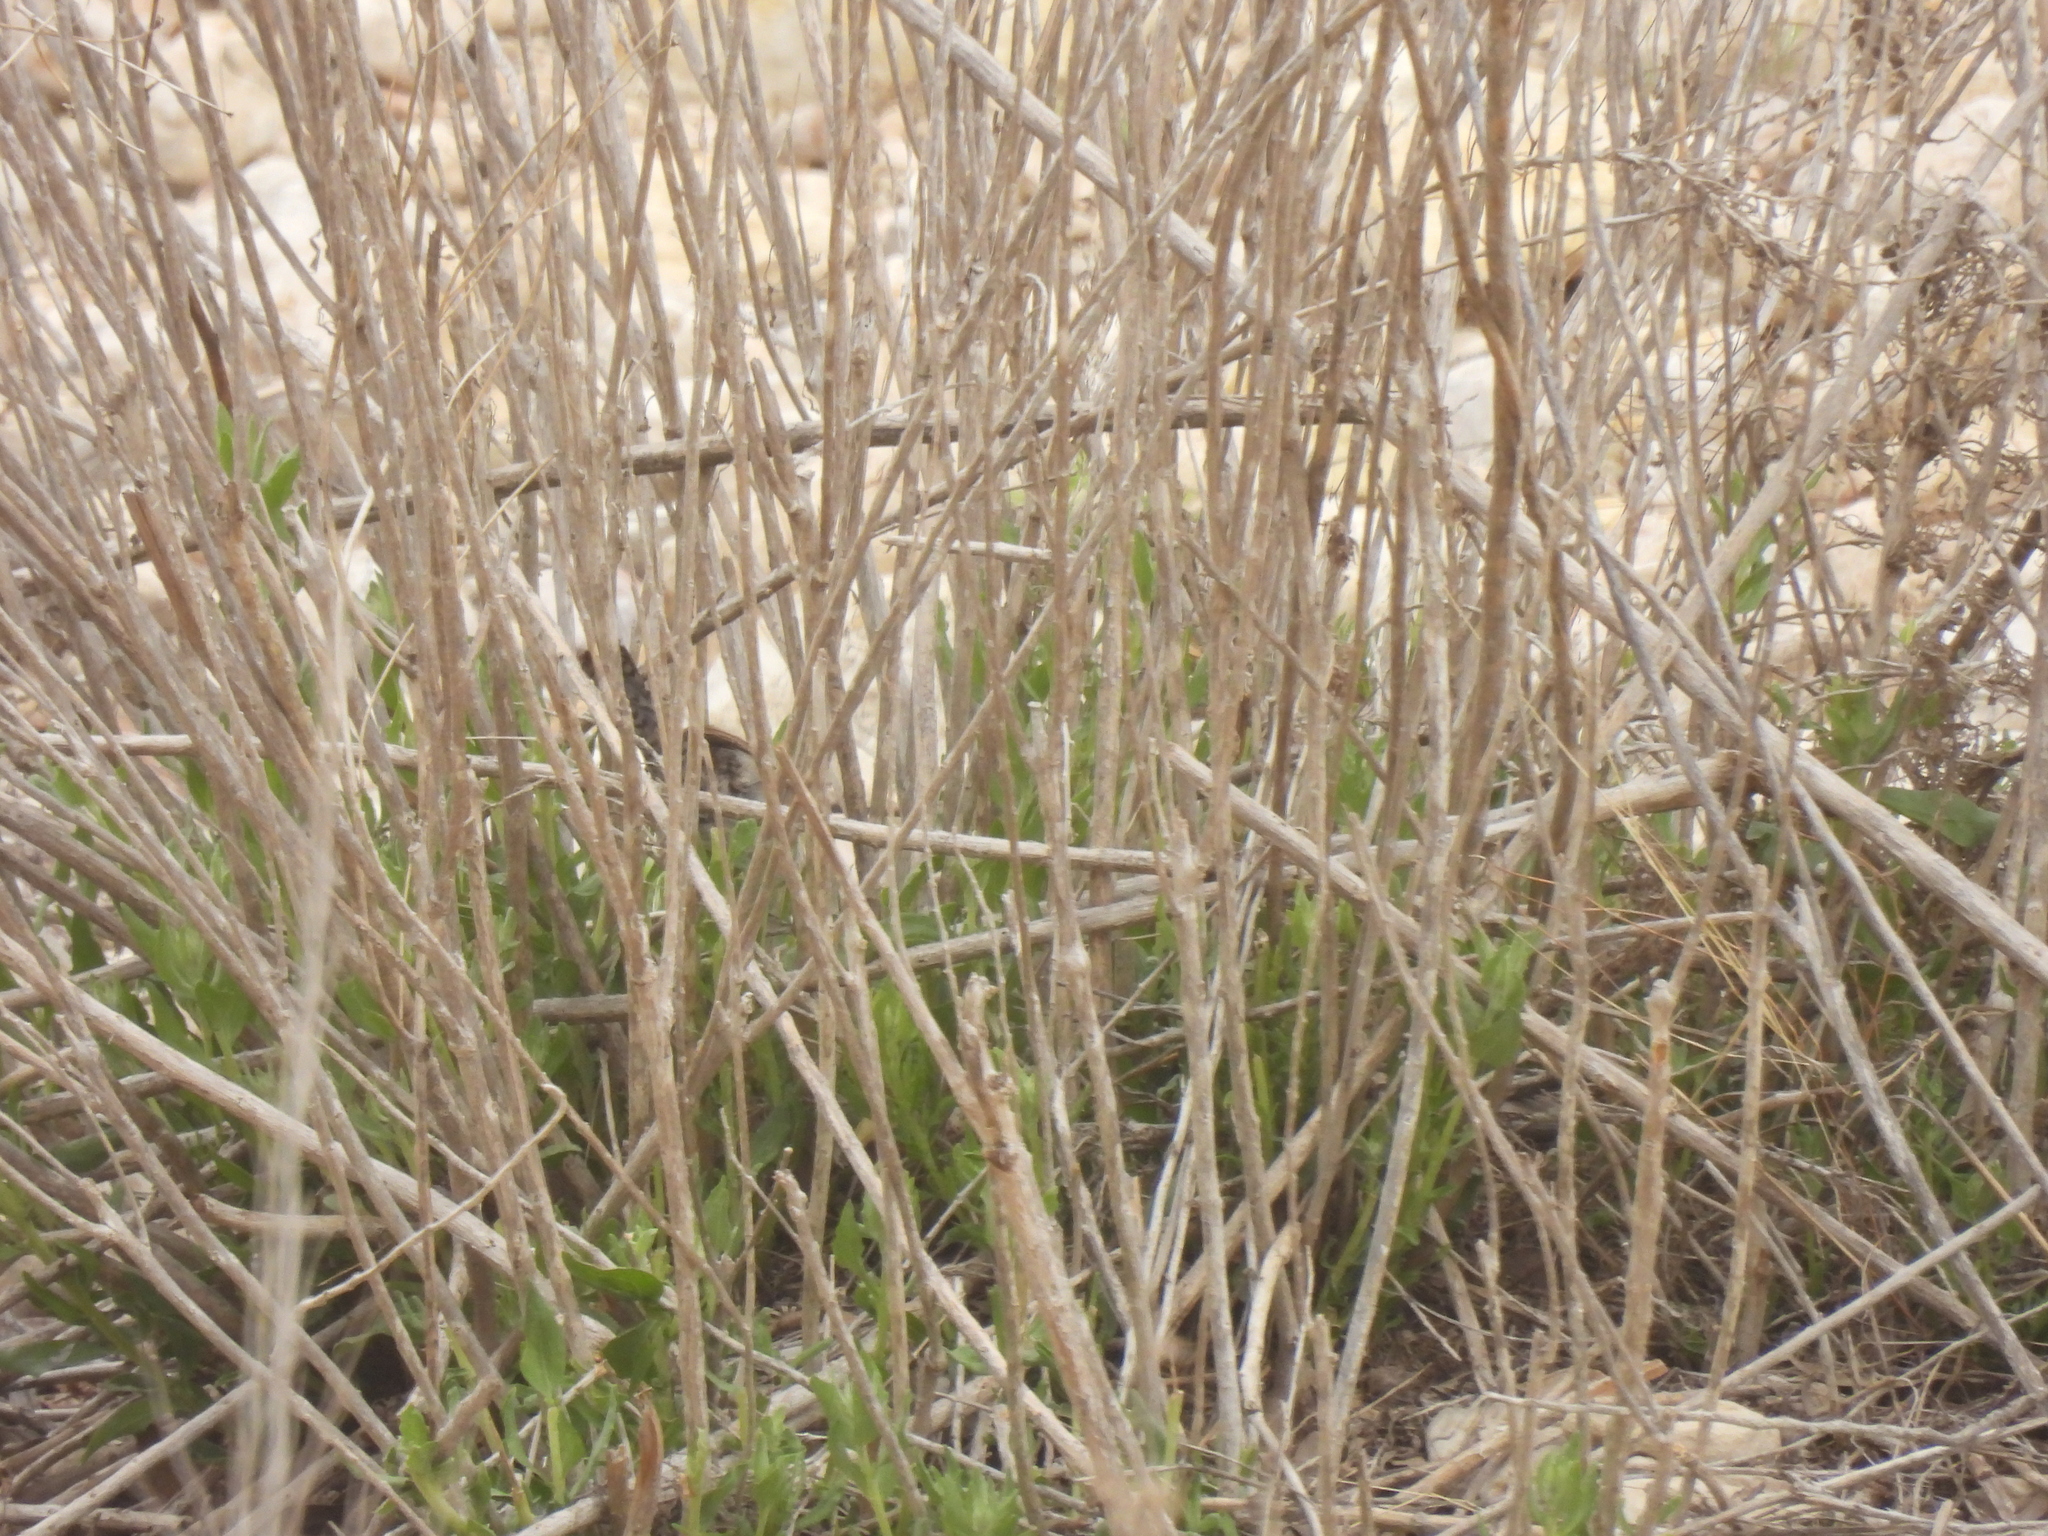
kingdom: Animalia
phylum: Chordata
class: Aves
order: Passeriformes
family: Troglodytidae
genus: Thryomanes
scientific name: Thryomanes bewickii
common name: Bewick's wren
